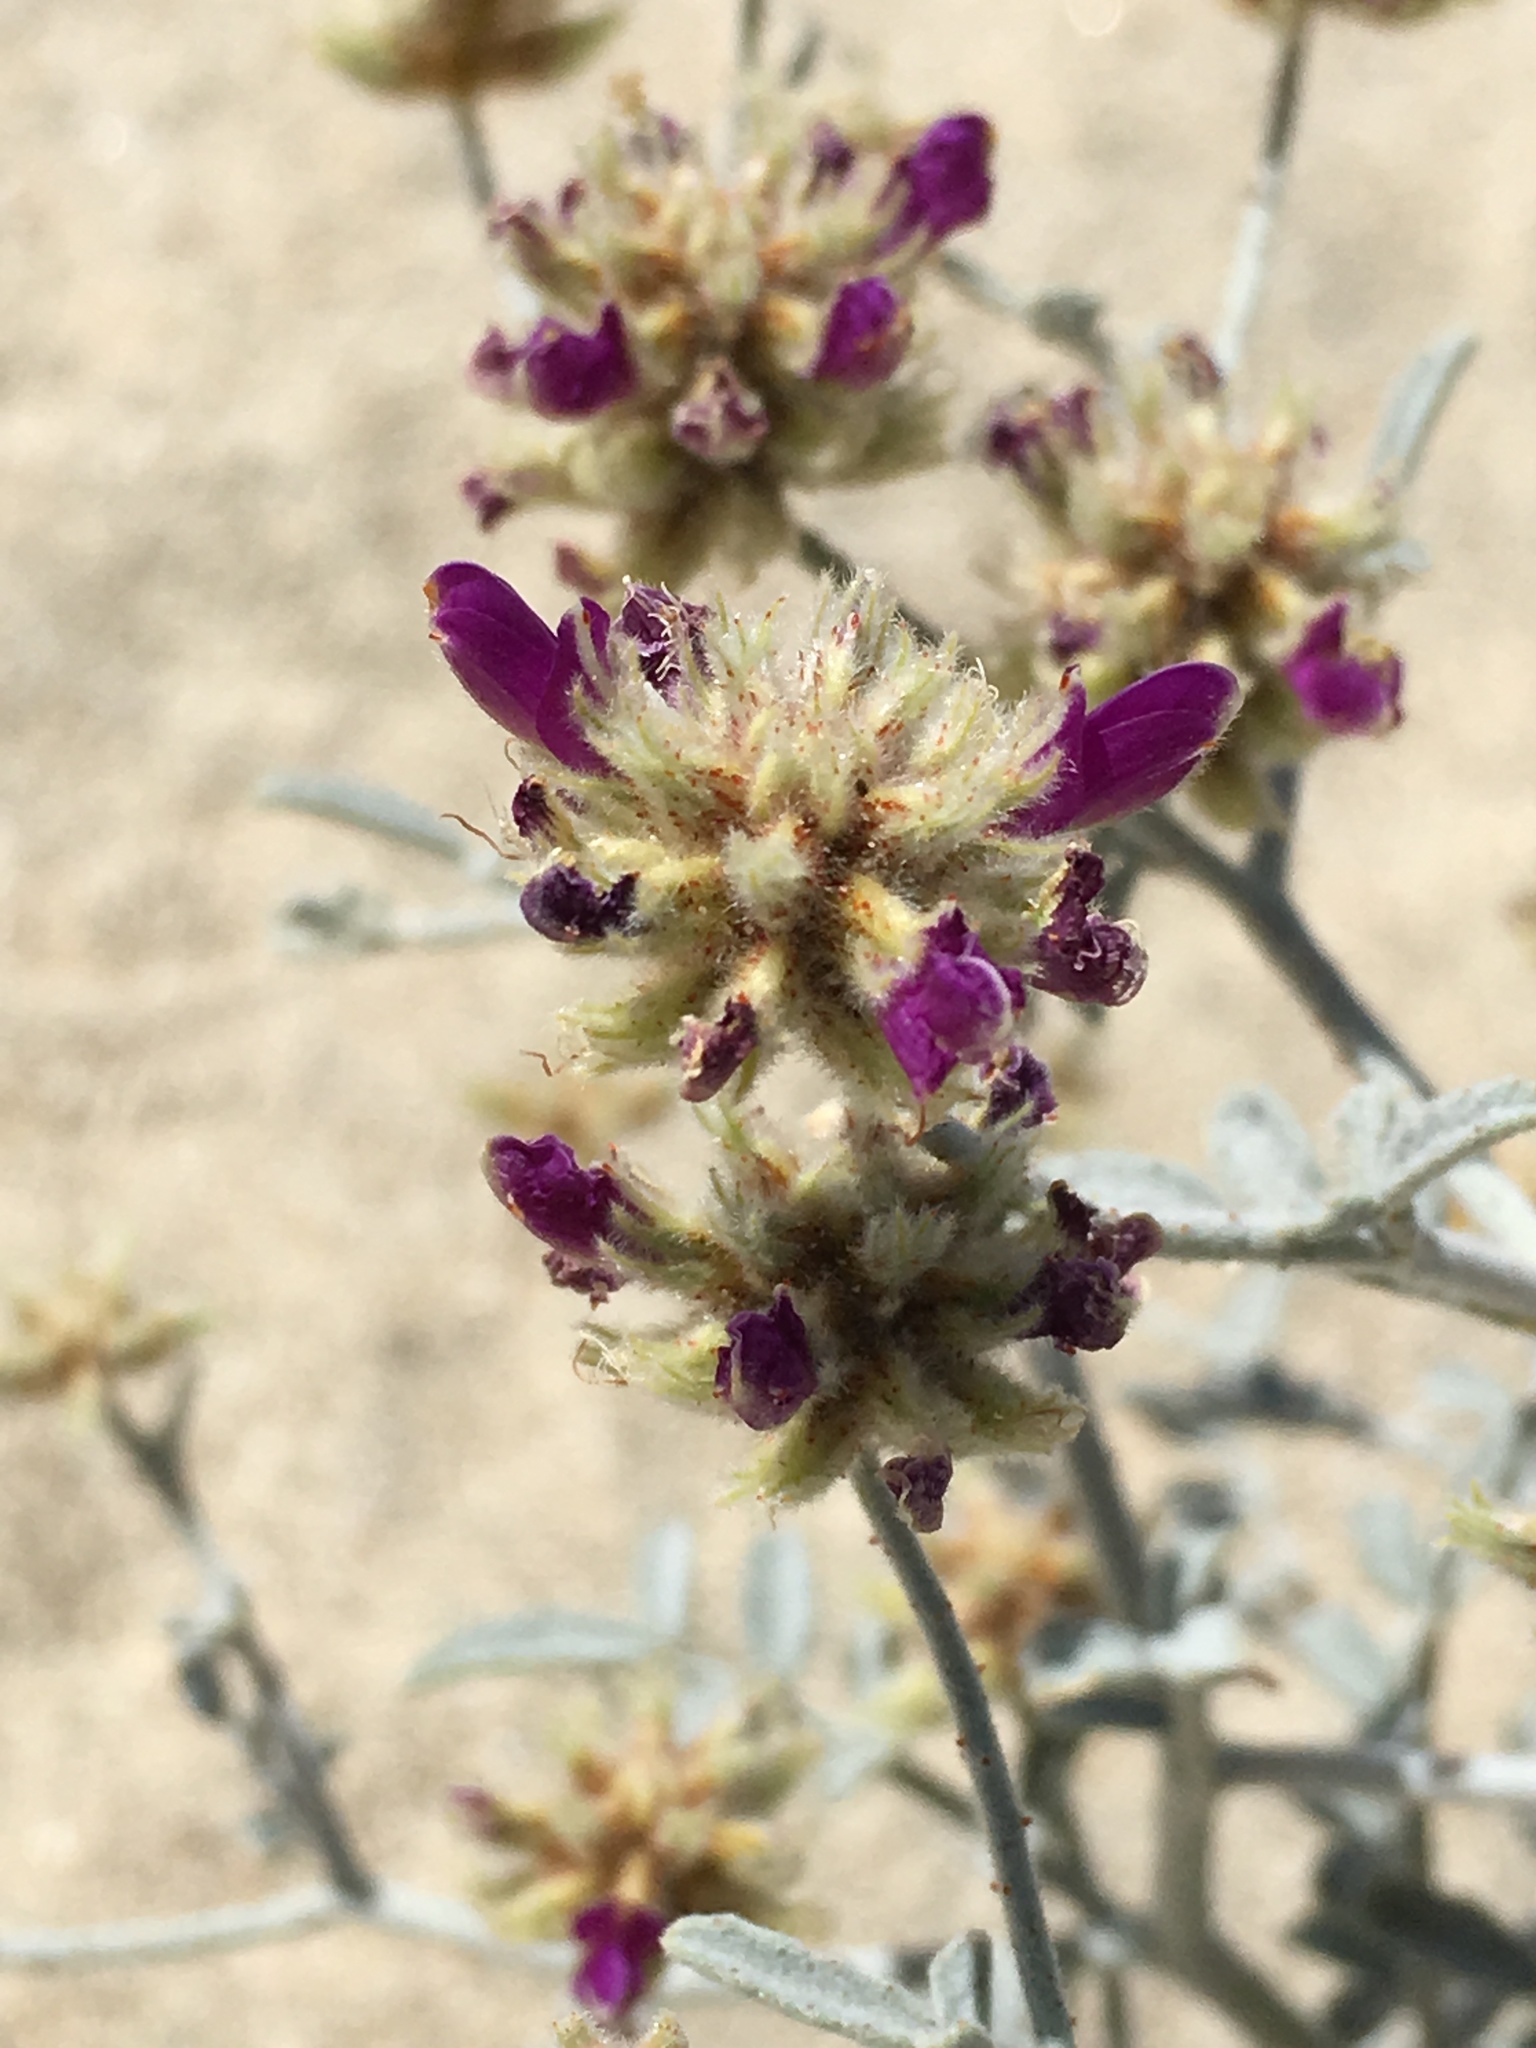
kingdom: Plantae
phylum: Tracheophyta
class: Magnoliopsida
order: Fabales
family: Fabaceae
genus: Psorothamnus
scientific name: Psorothamnus emoryi
